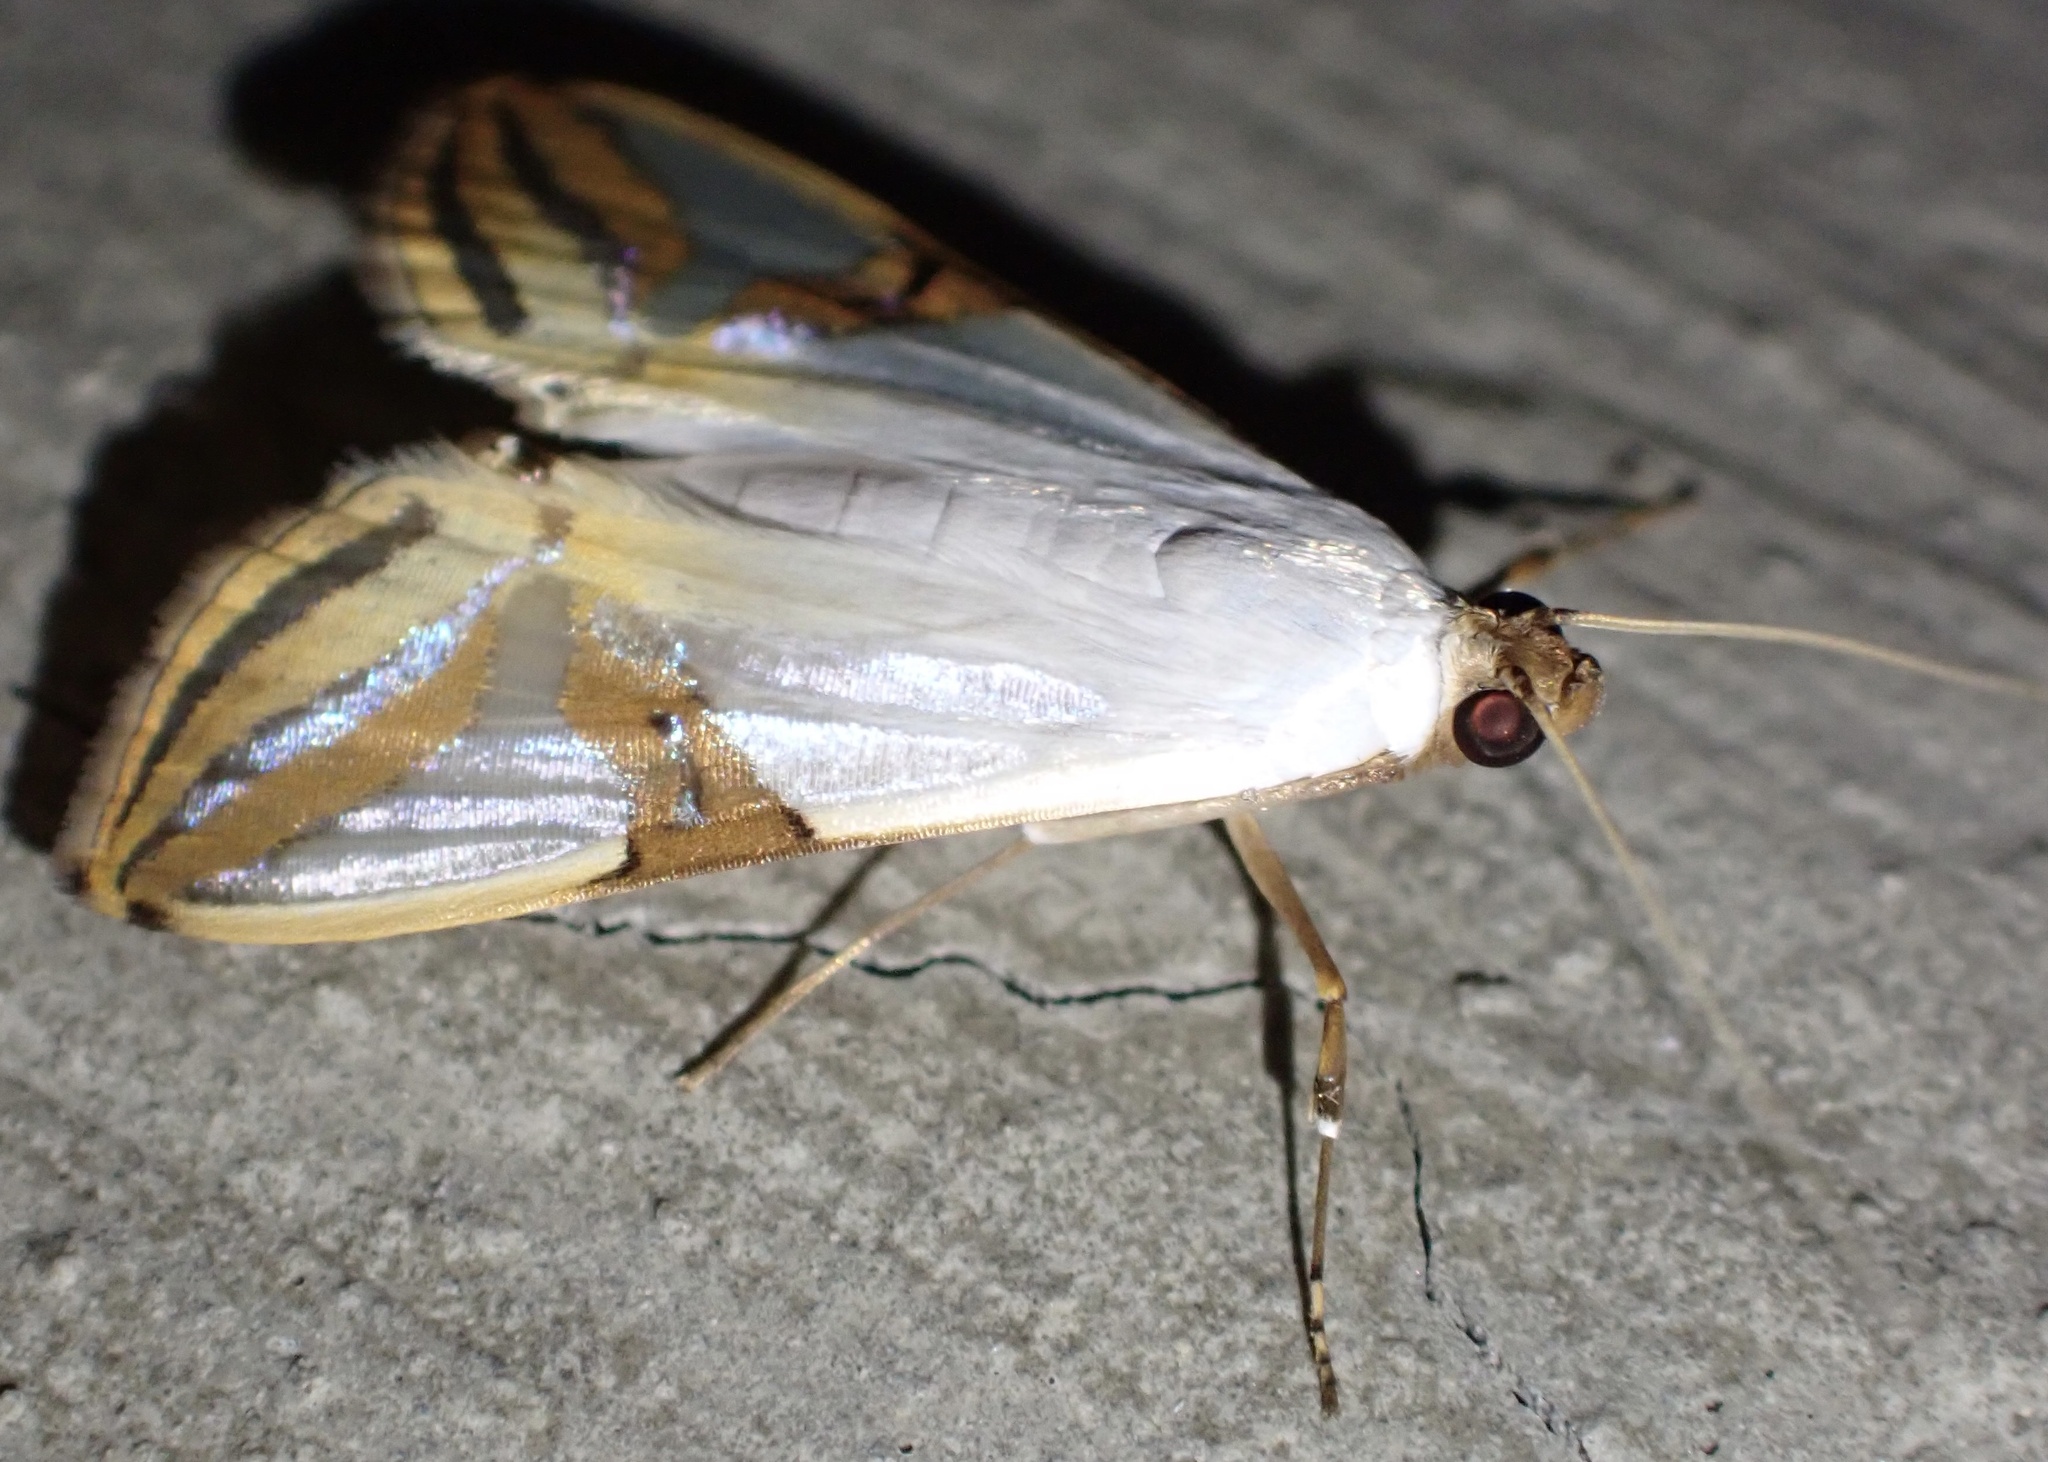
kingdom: Animalia
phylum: Arthropoda
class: Insecta
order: Lepidoptera
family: Crambidae
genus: Talanga
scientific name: Talanga sabacusalis
